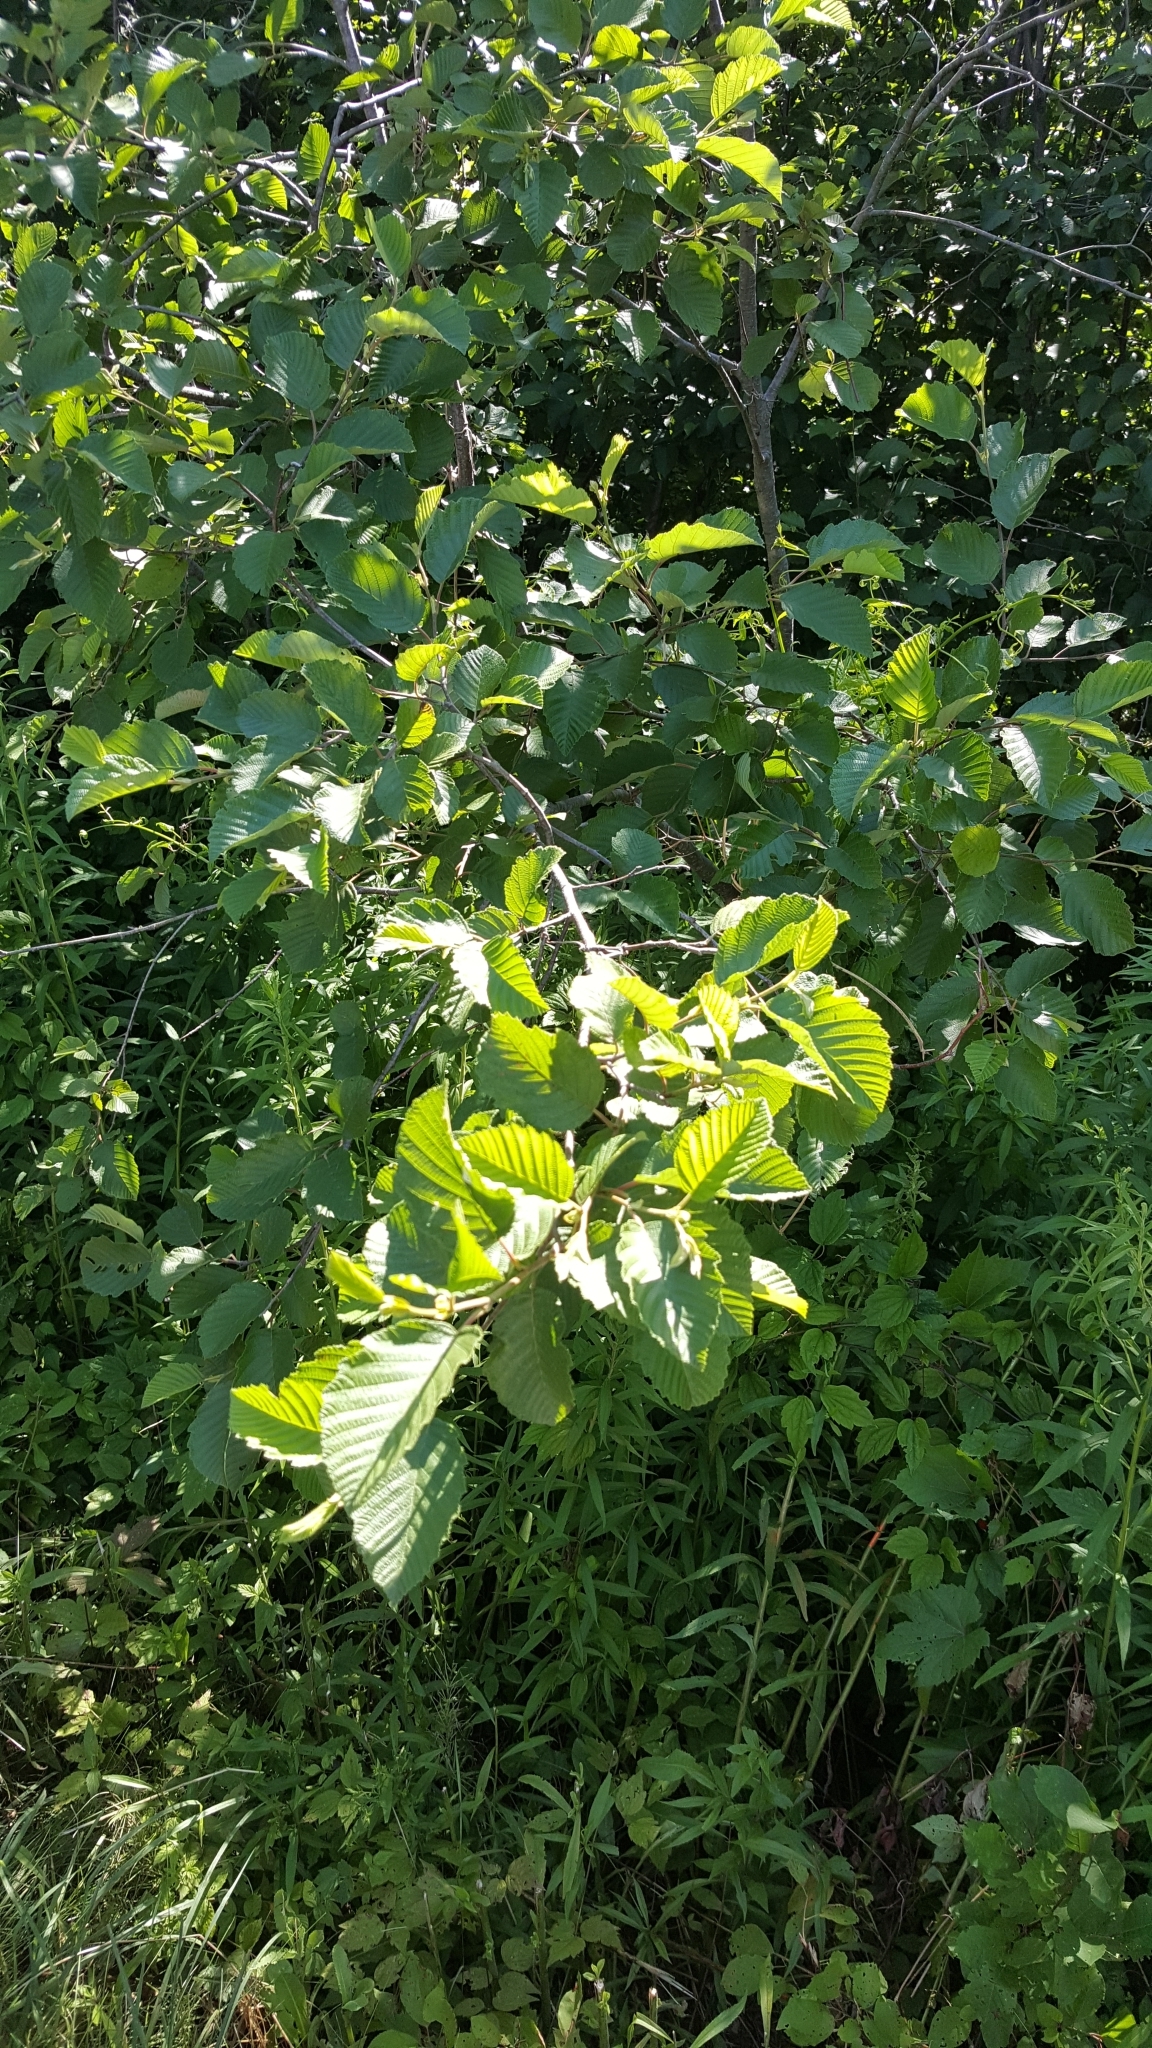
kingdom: Plantae
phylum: Tracheophyta
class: Magnoliopsida
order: Fagales
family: Betulaceae
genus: Alnus
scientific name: Alnus incana
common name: Grey alder
